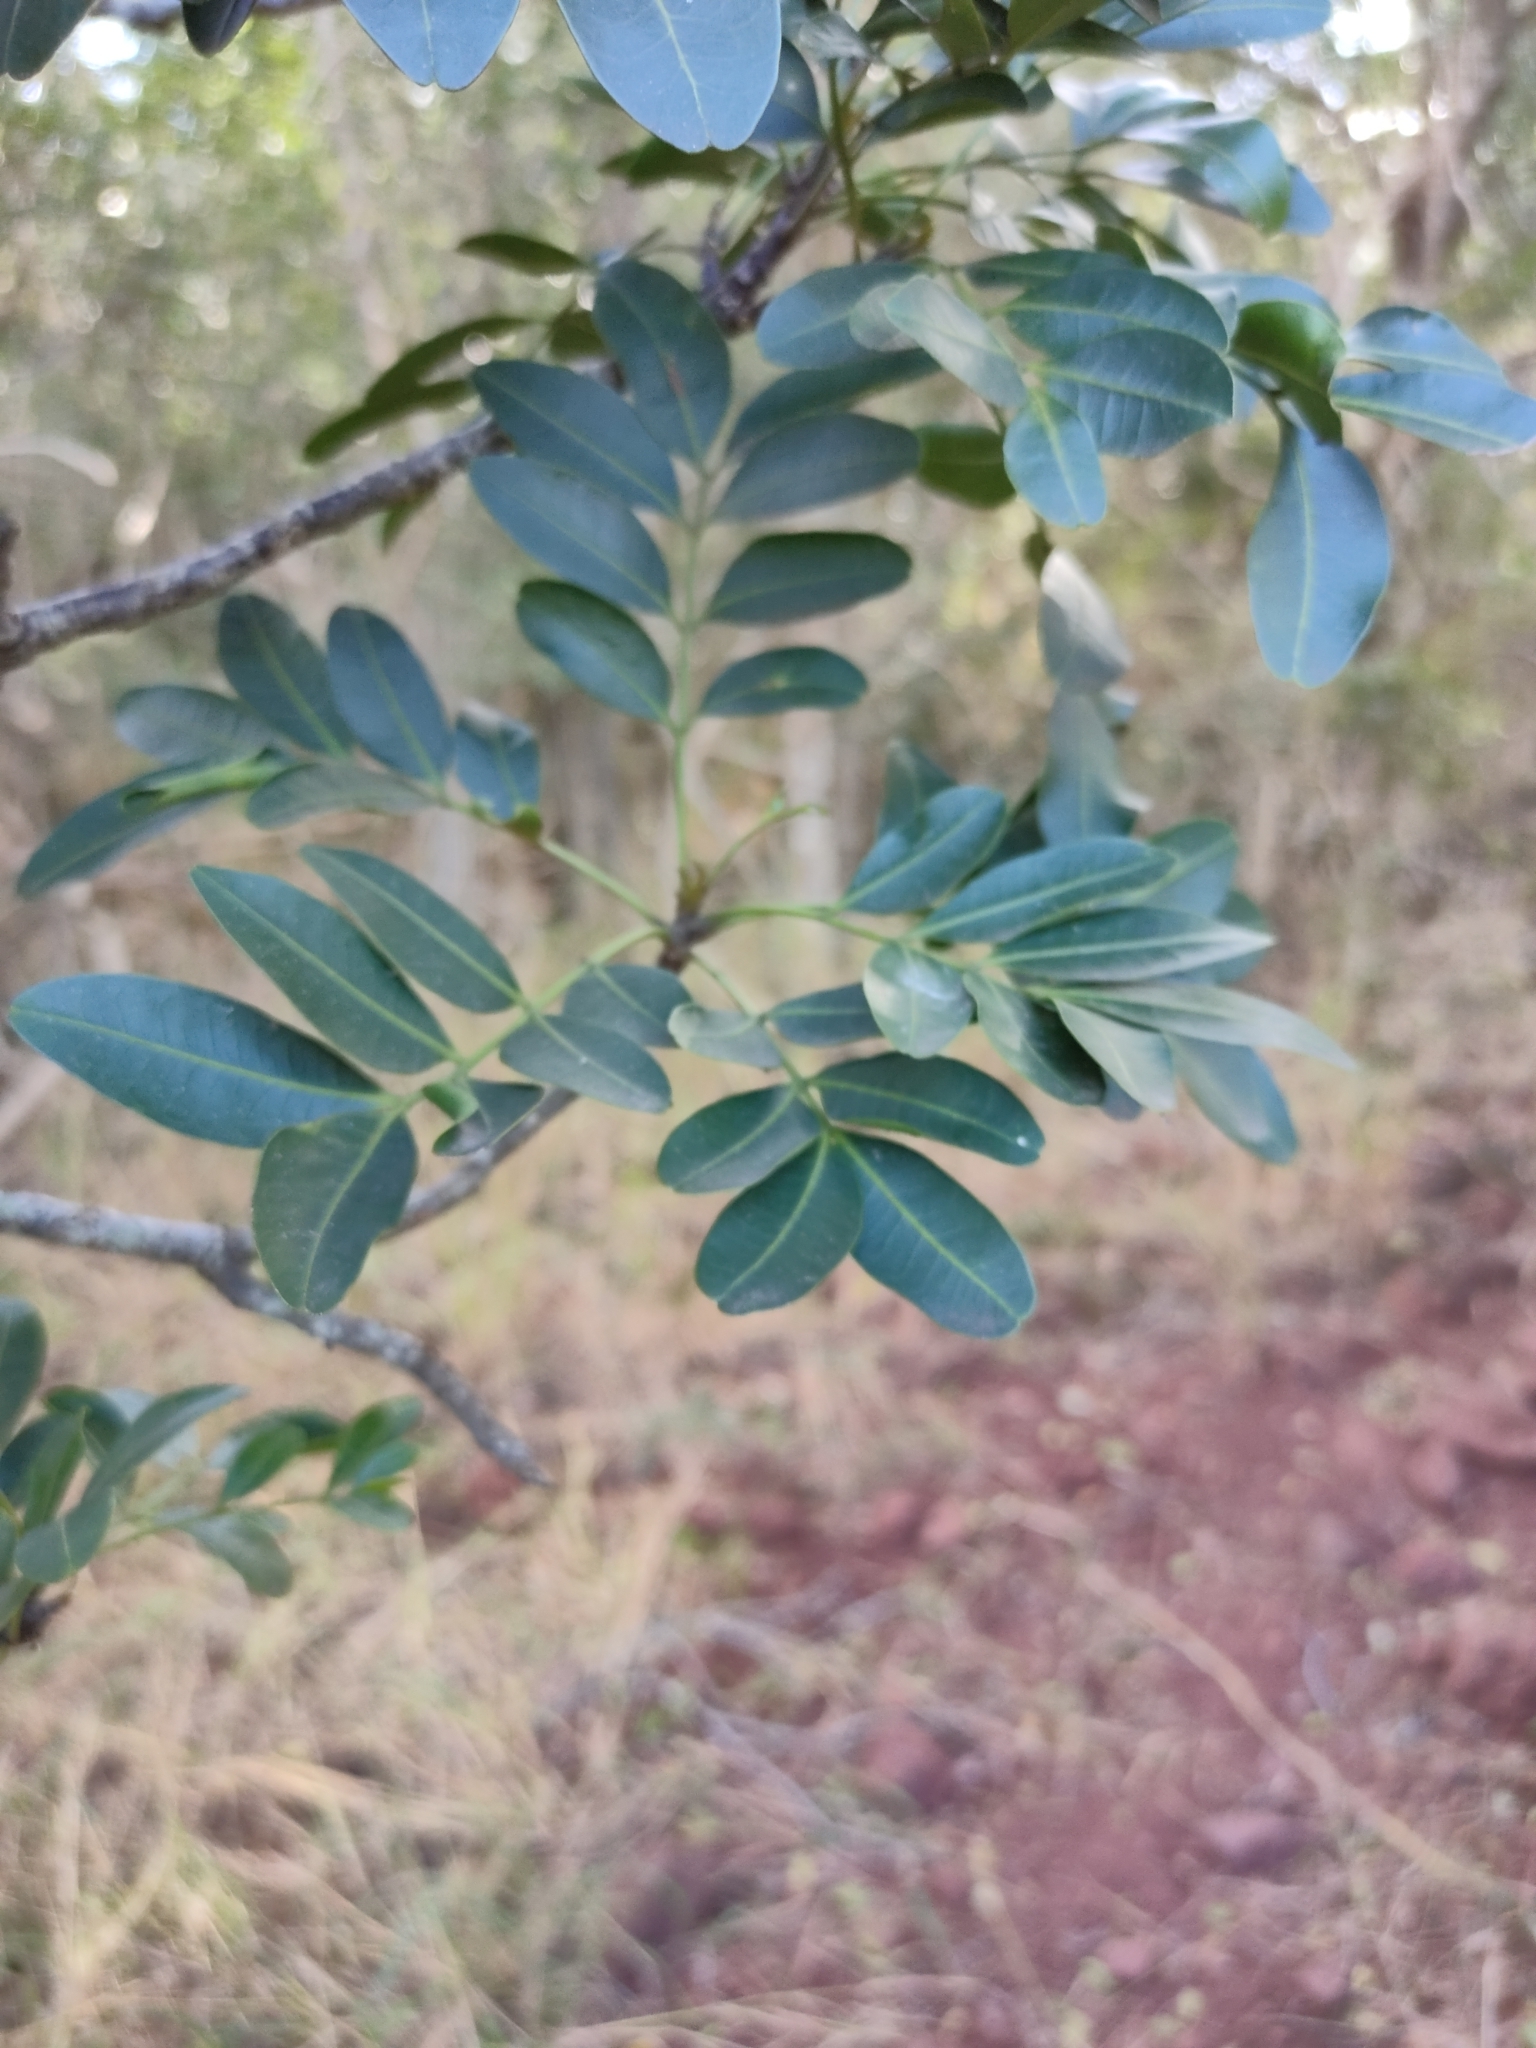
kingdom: Plantae
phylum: Tracheophyta
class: Magnoliopsida
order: Sapindales
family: Meliaceae
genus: Owenia
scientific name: Owenia venosa
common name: Crow's-apple
